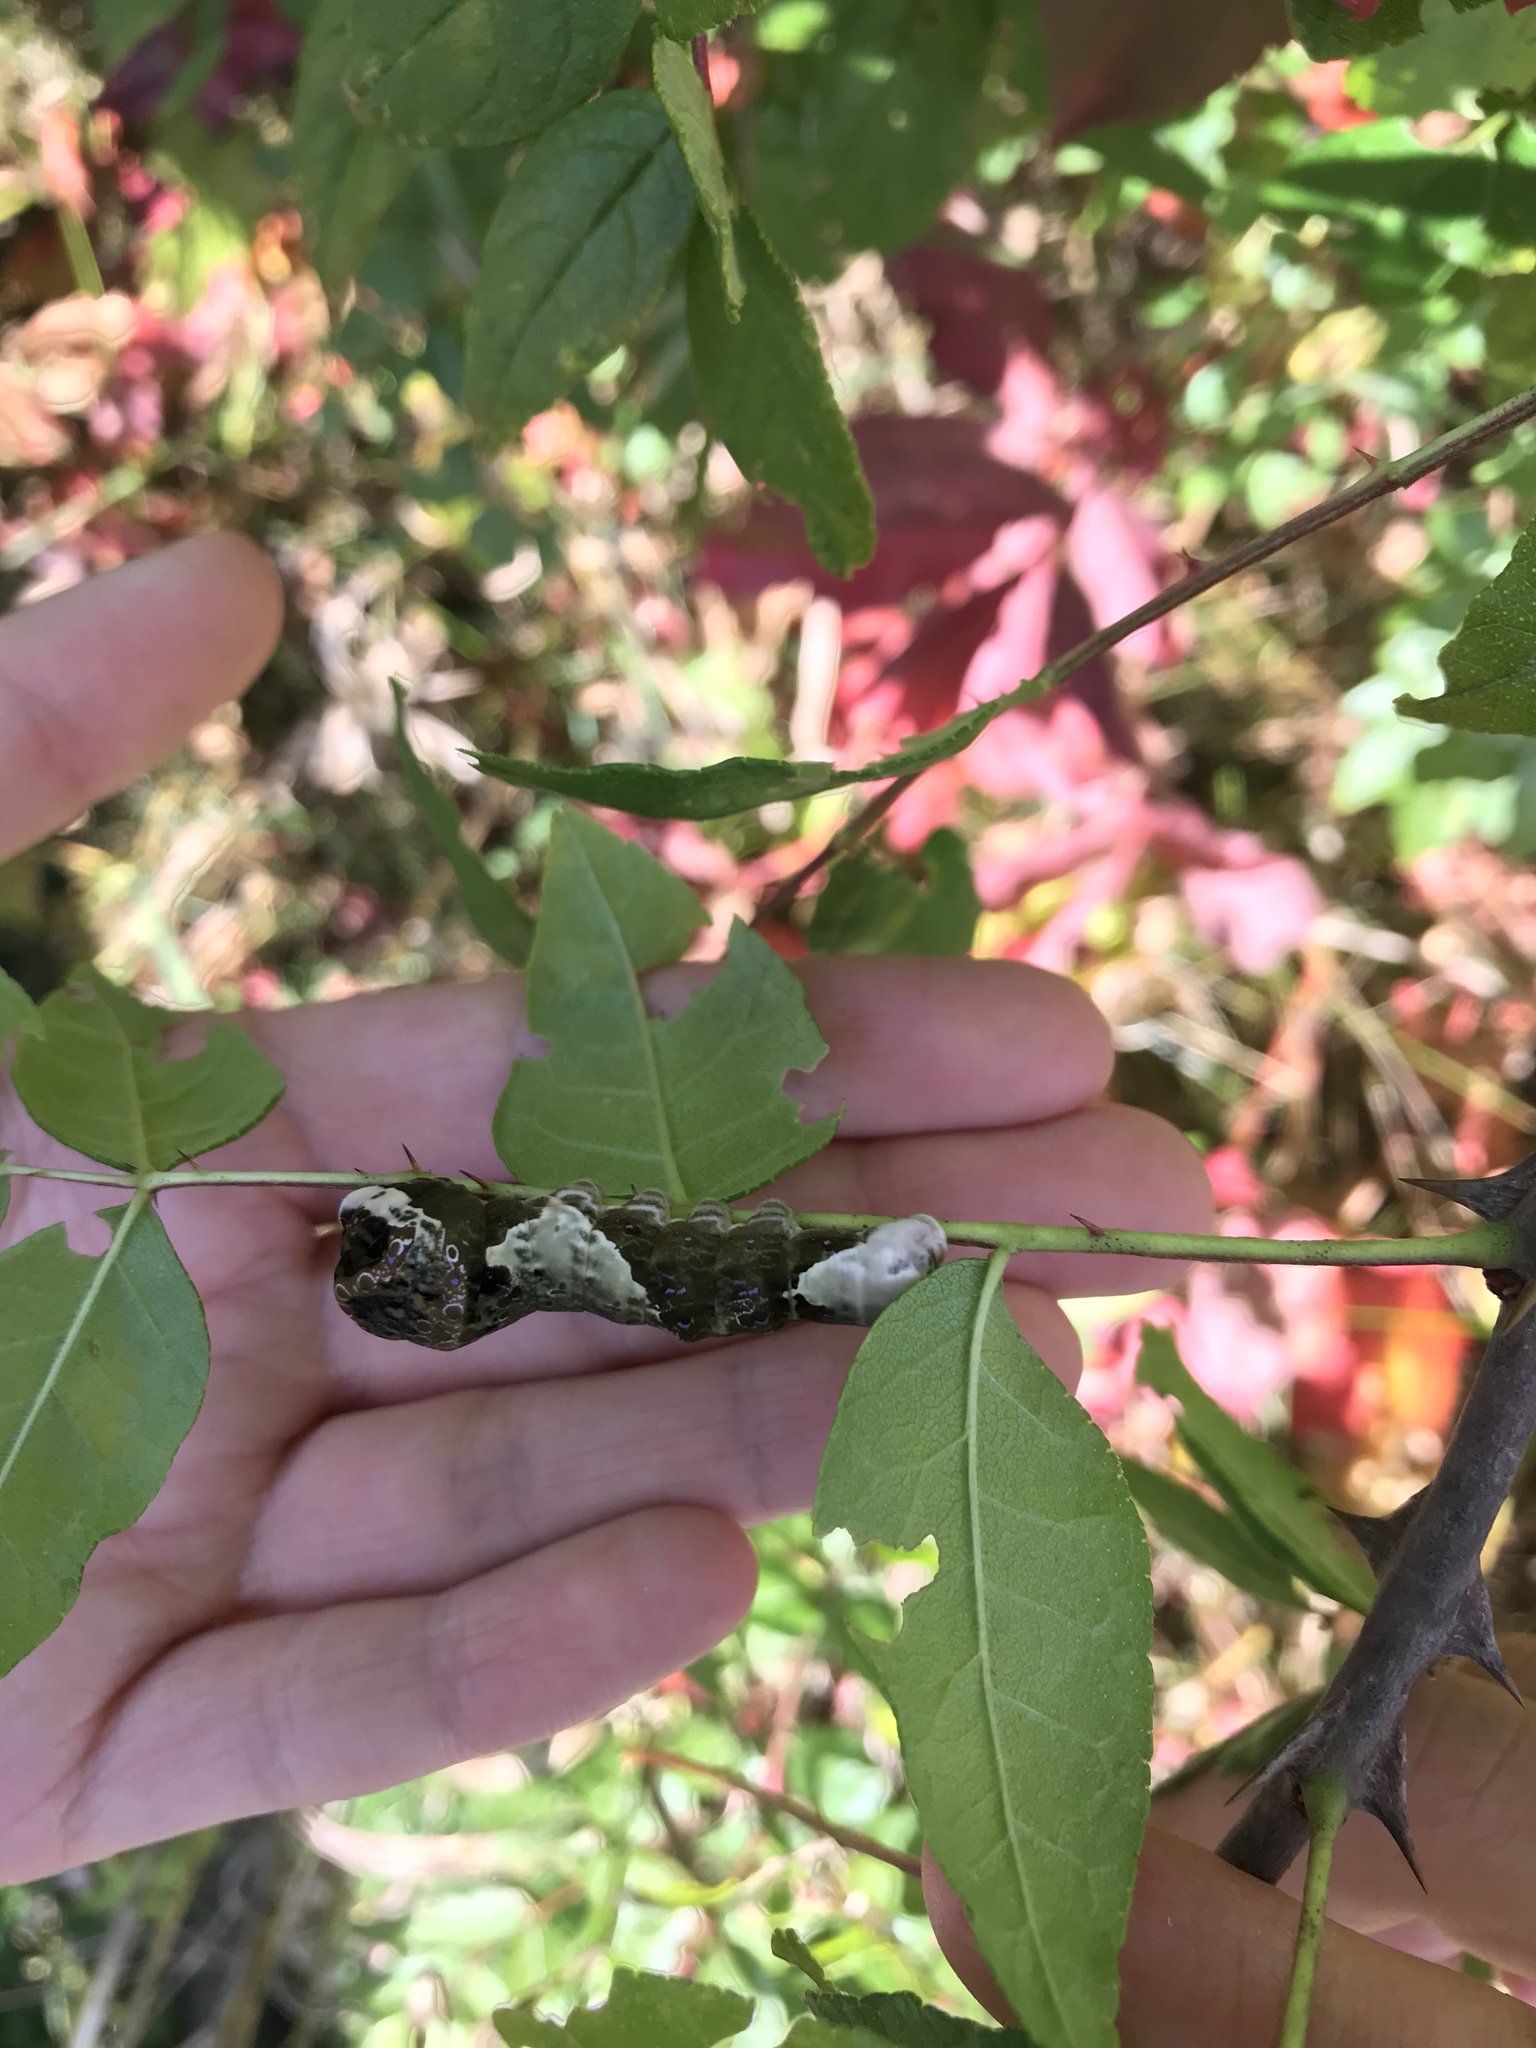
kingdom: Animalia
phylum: Arthropoda
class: Insecta
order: Lepidoptera
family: Papilionidae
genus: Papilio
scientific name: Papilio cresphontes
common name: Giant swallowtail
